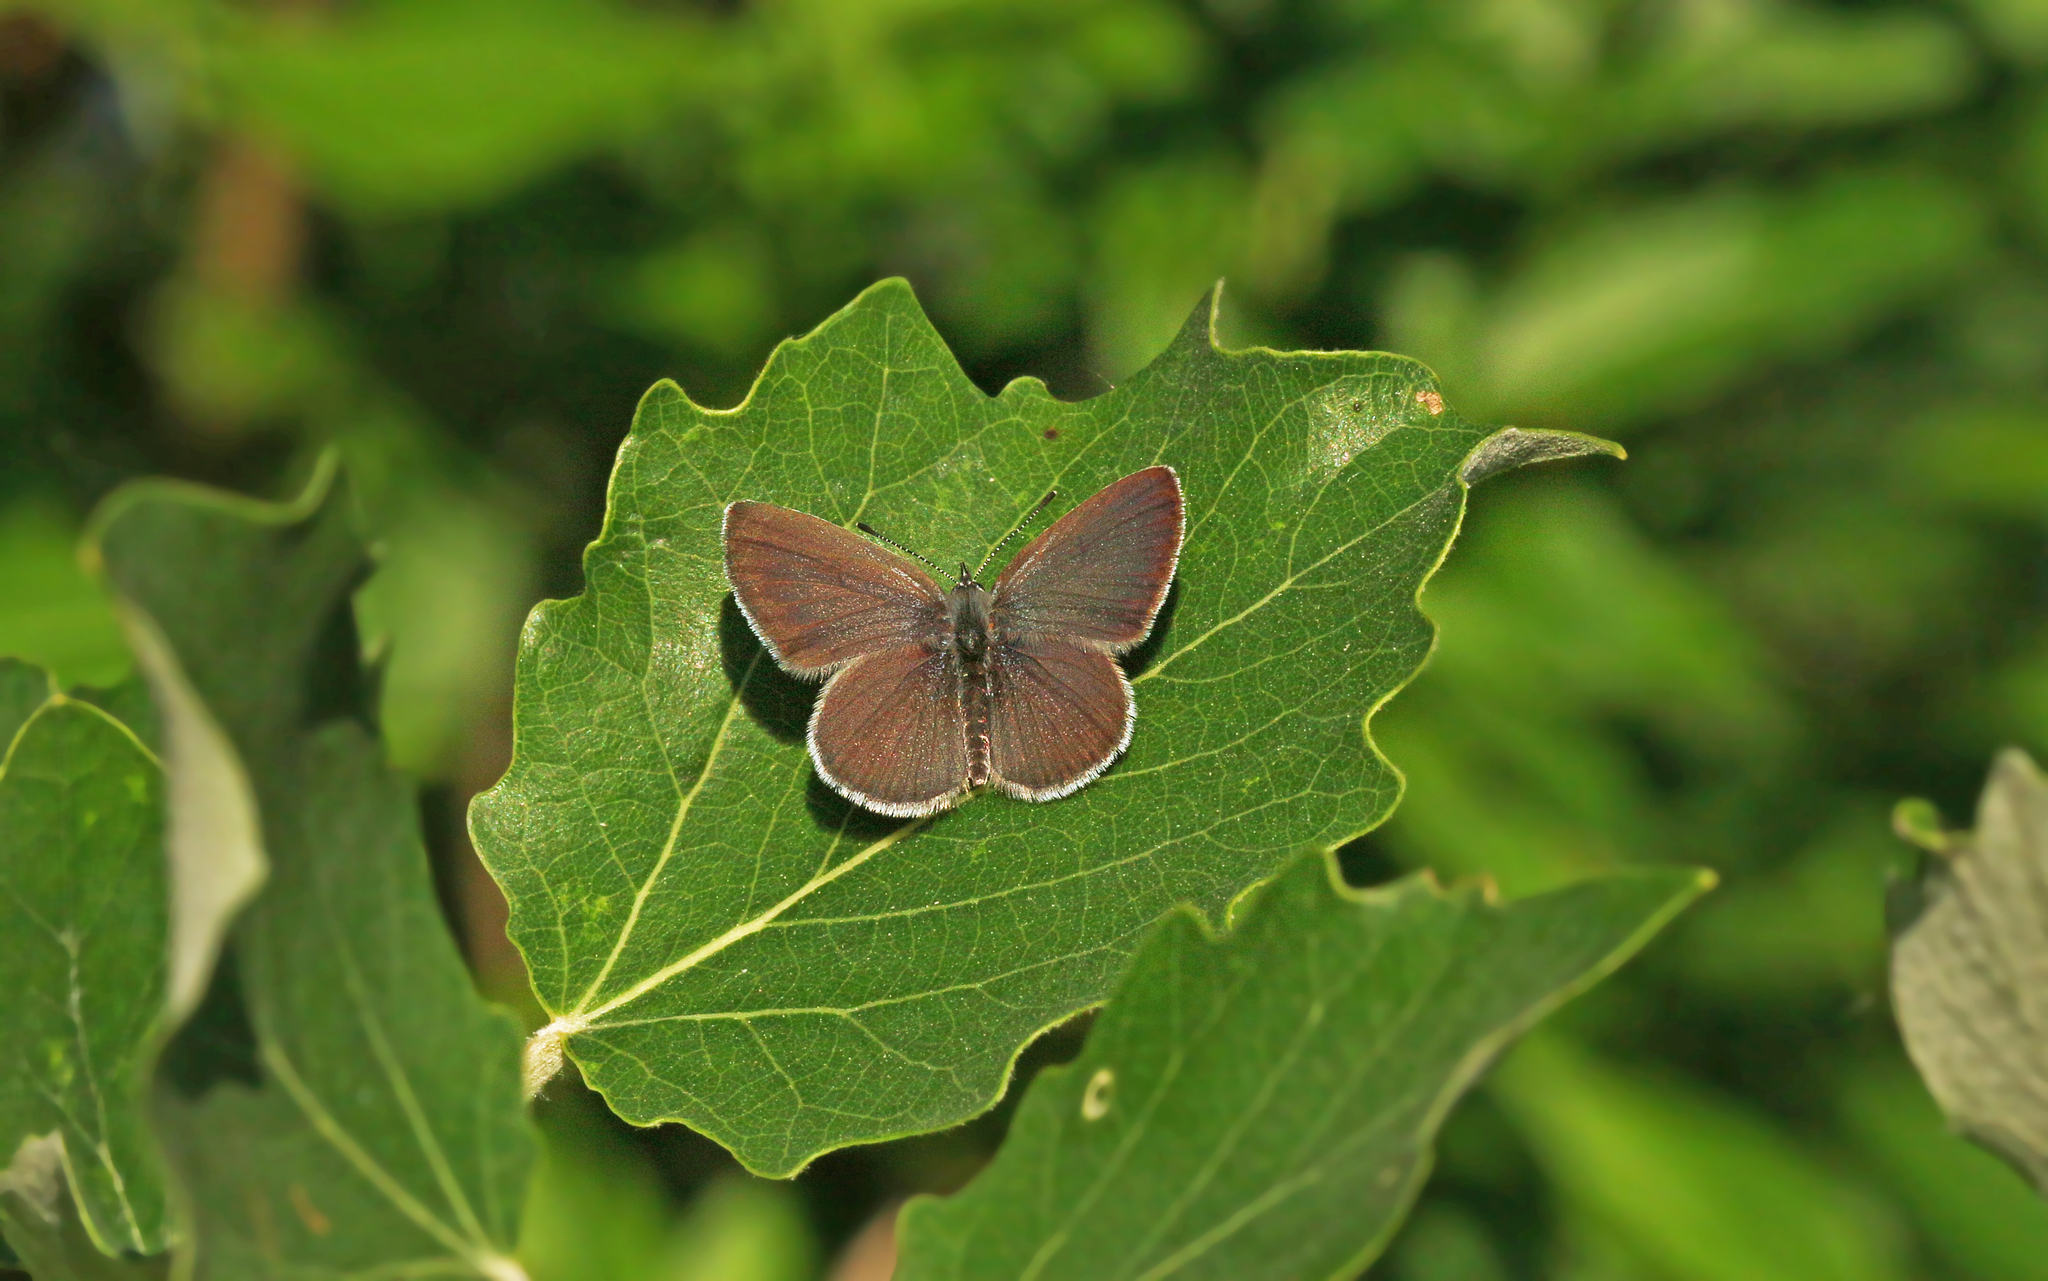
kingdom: Animalia
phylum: Arthropoda
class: Insecta
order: Lepidoptera
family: Lycaenidae
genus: Cupido
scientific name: Cupido minimus
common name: Small blue
